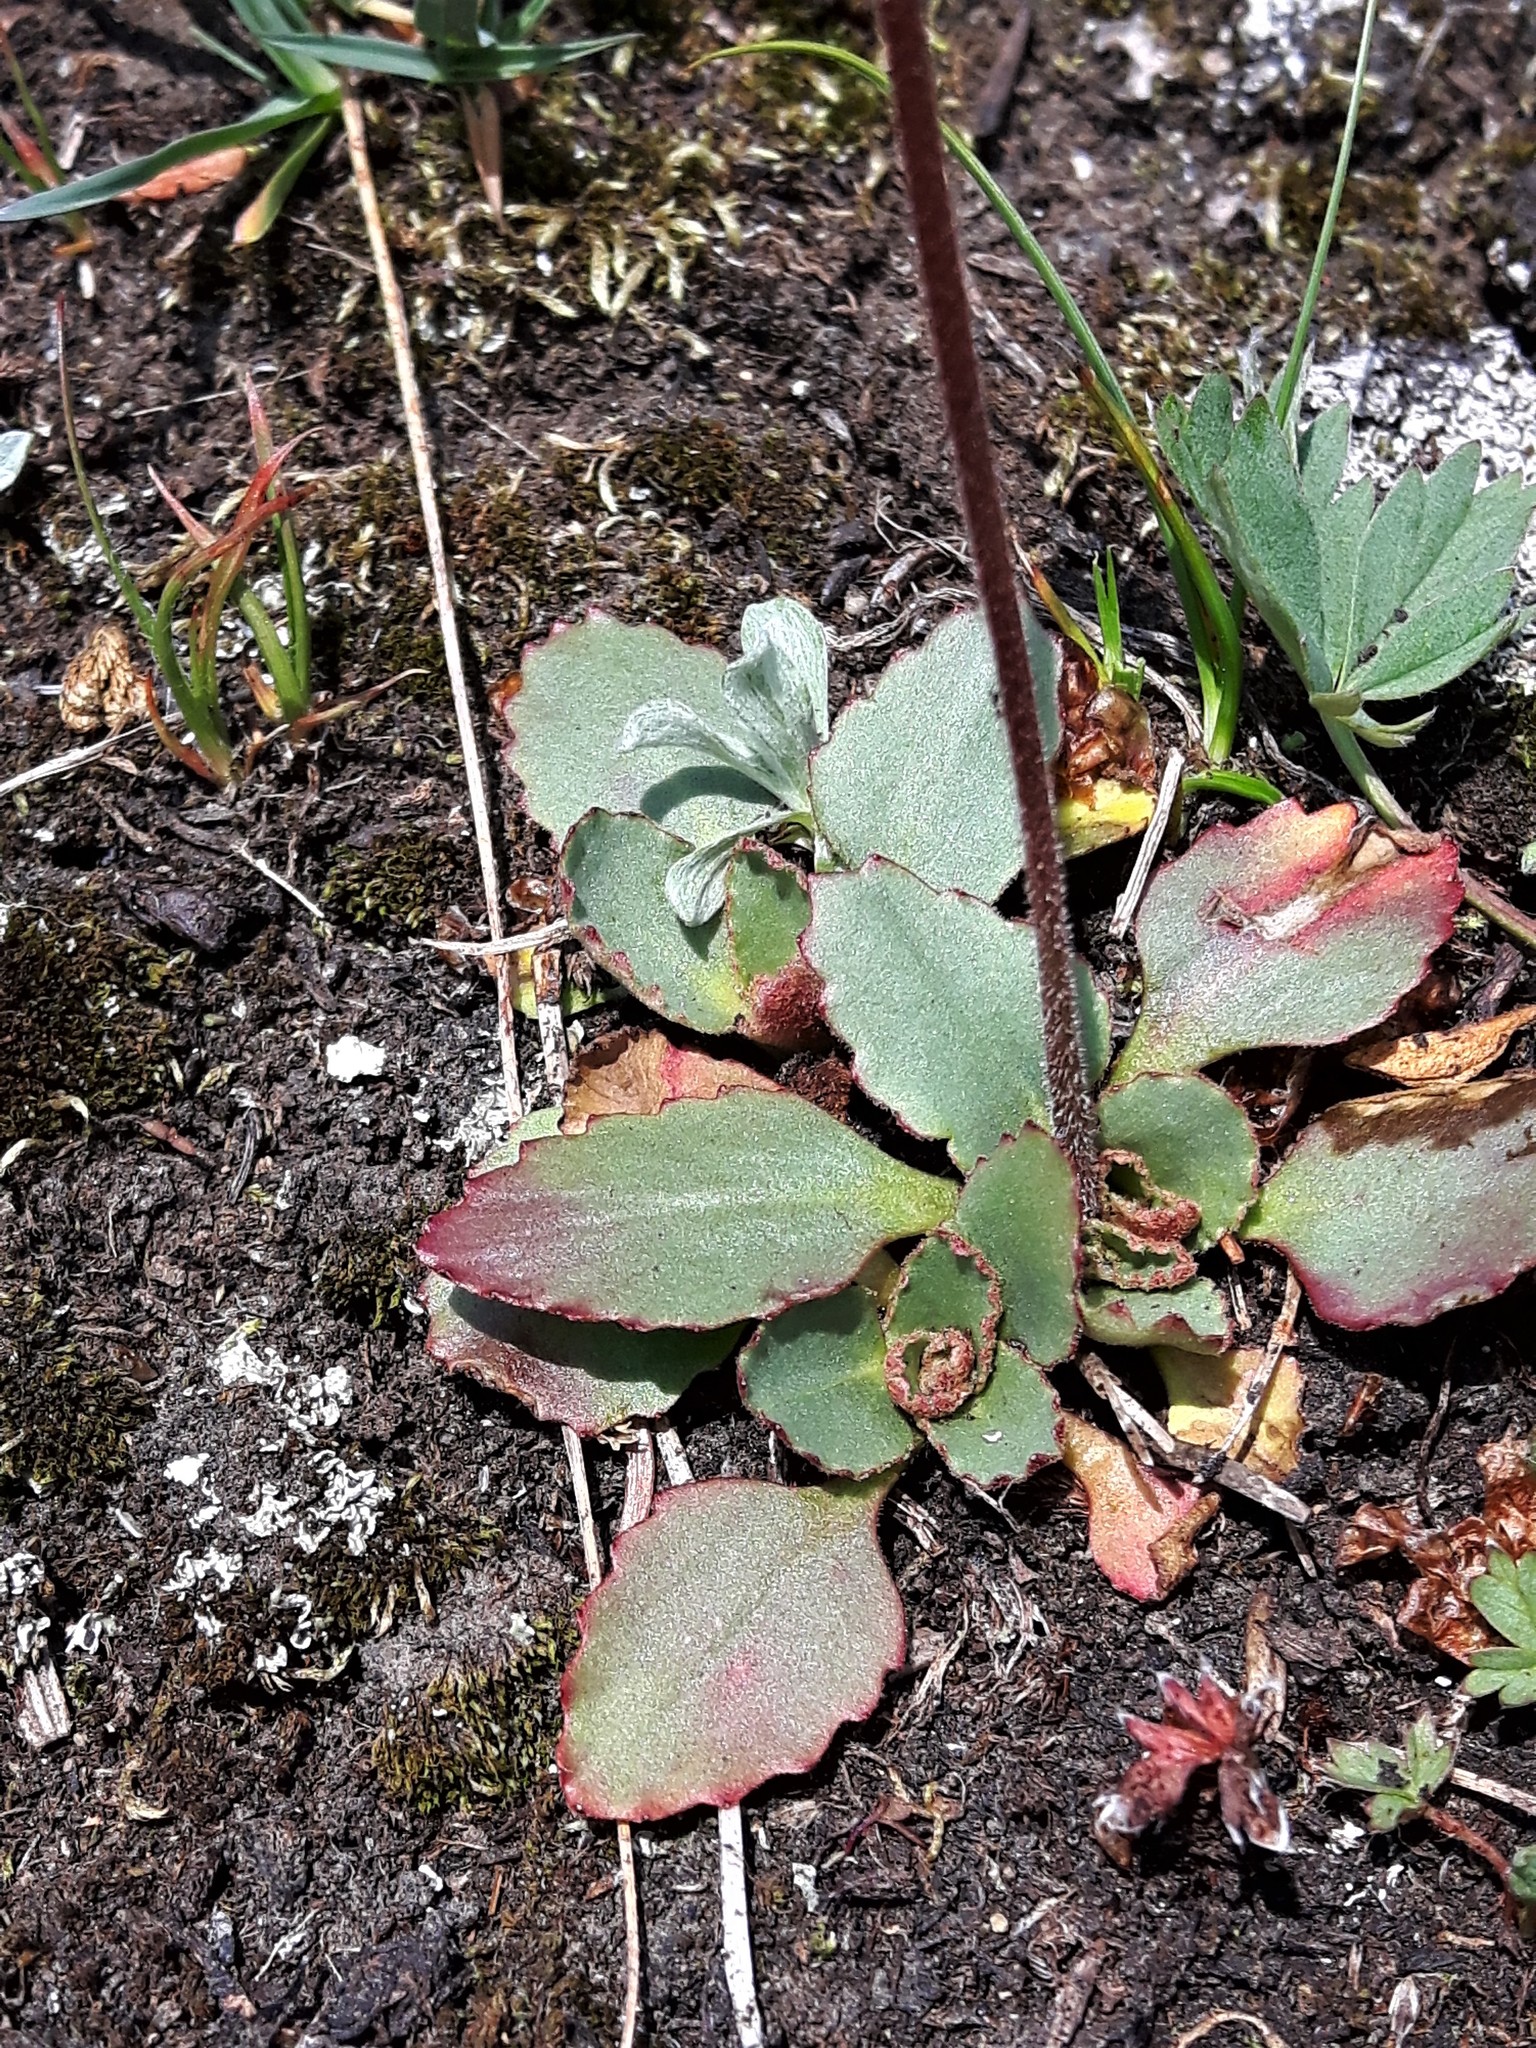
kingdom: Plantae
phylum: Tracheophyta
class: Magnoliopsida
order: Saxifragales
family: Saxifragaceae
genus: Micranthes
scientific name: Micranthes occidentalis
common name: Alberta saxifrage
